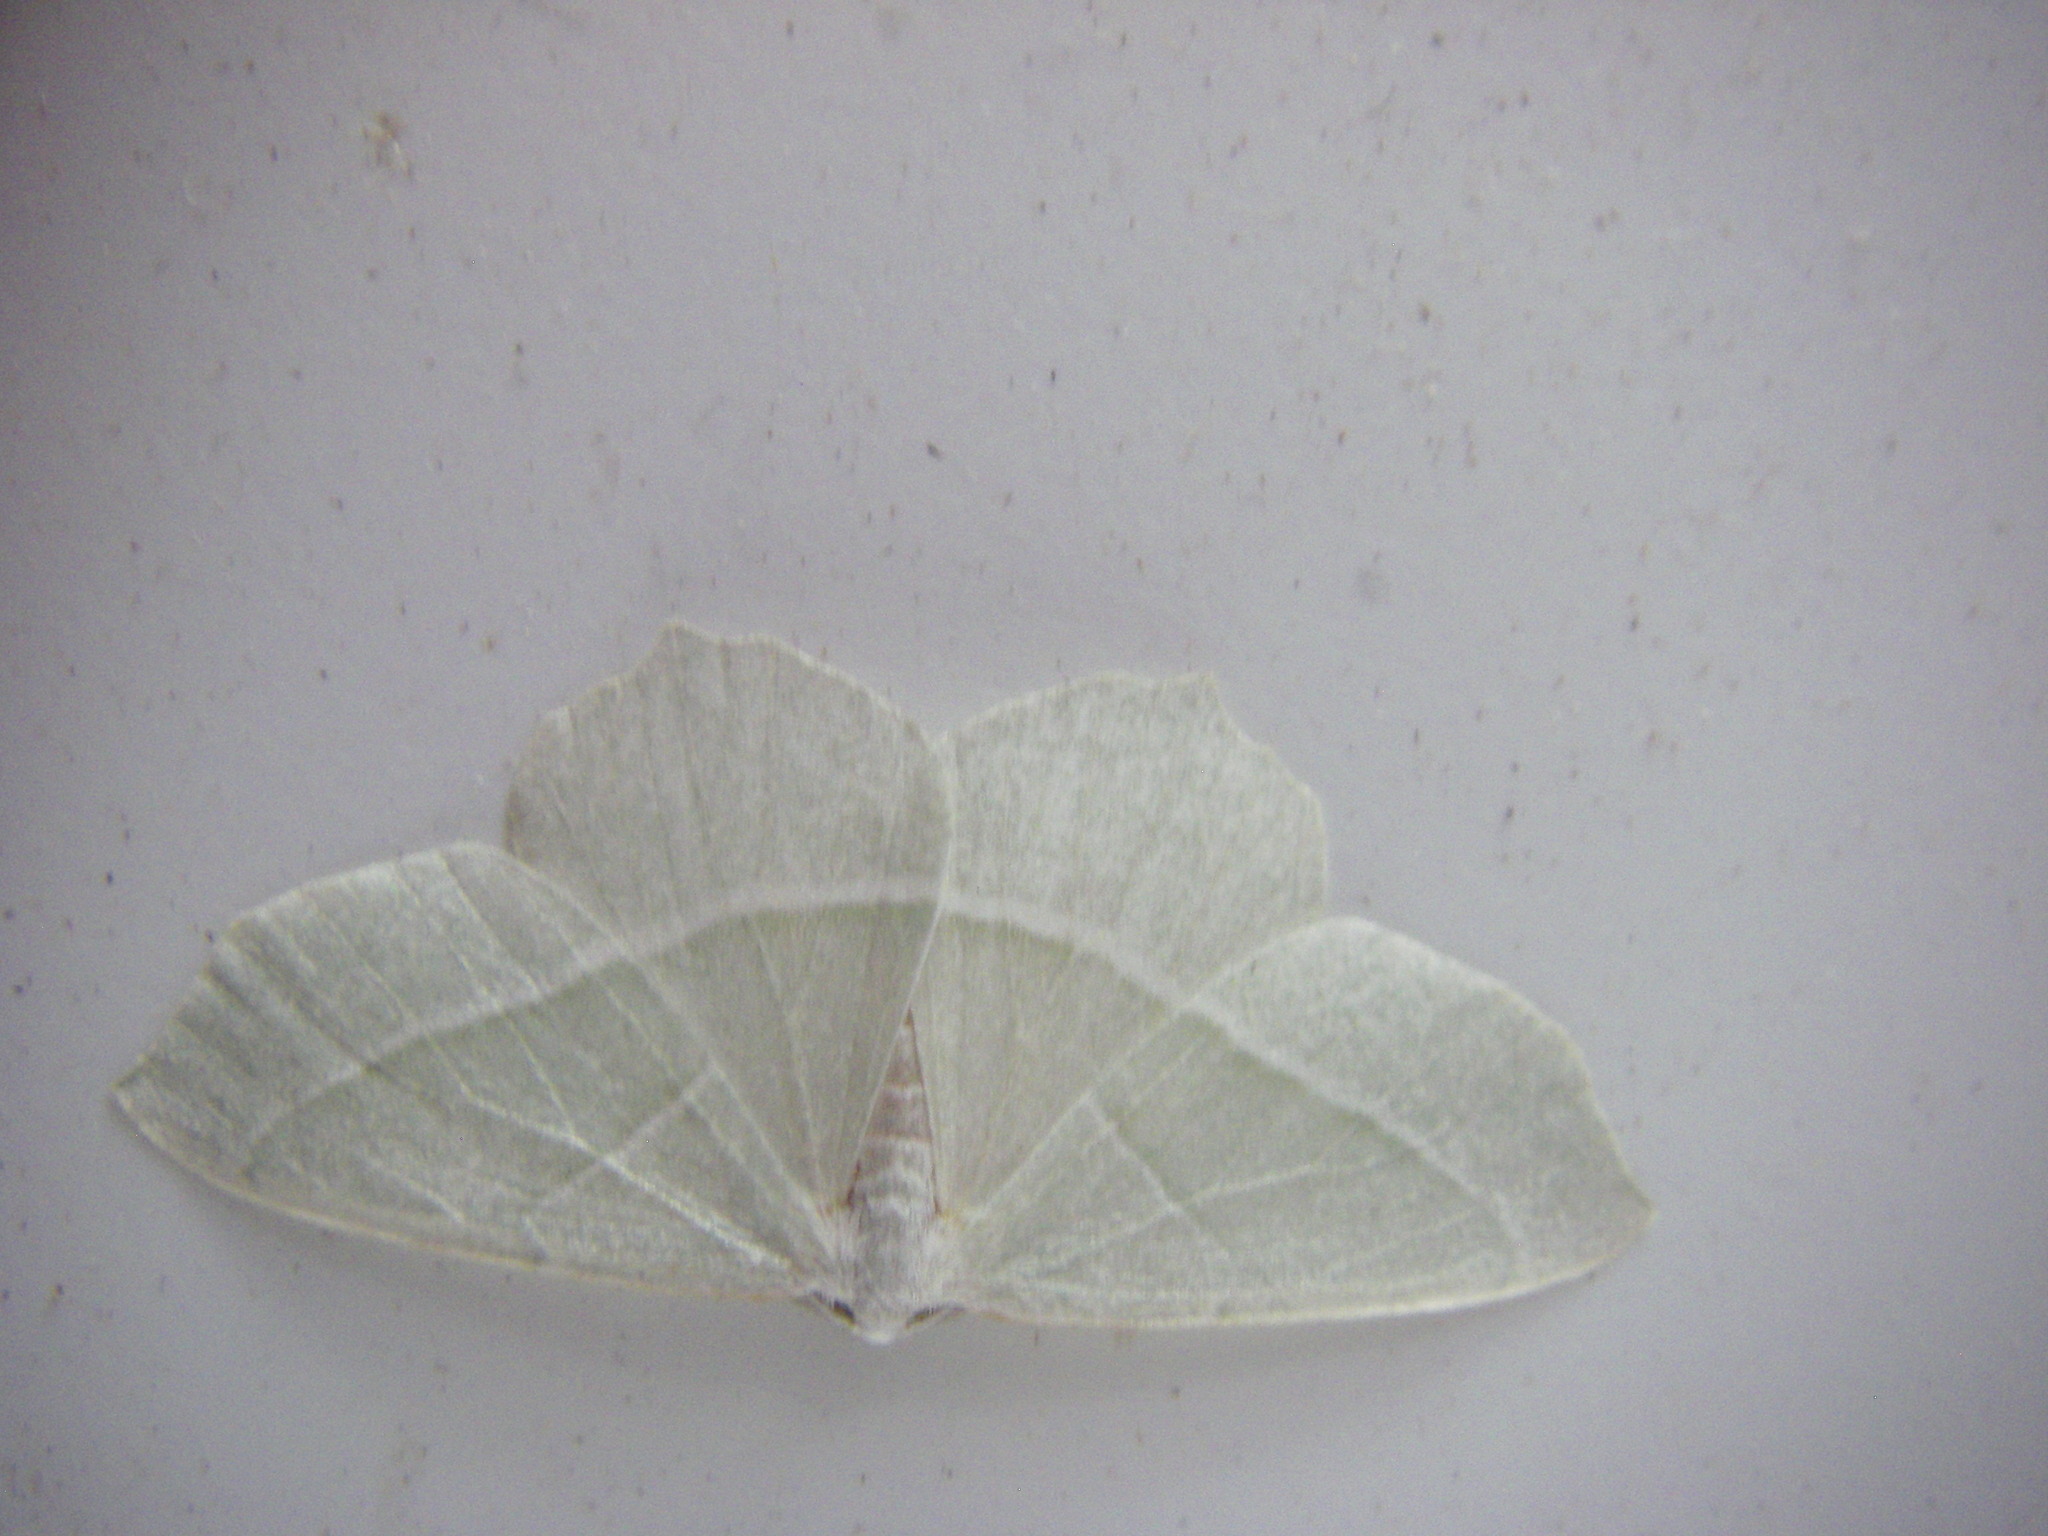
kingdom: Animalia
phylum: Arthropoda
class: Insecta
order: Lepidoptera
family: Geometridae
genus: Campaea
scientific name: Campaea margaritaria
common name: Light emerald
